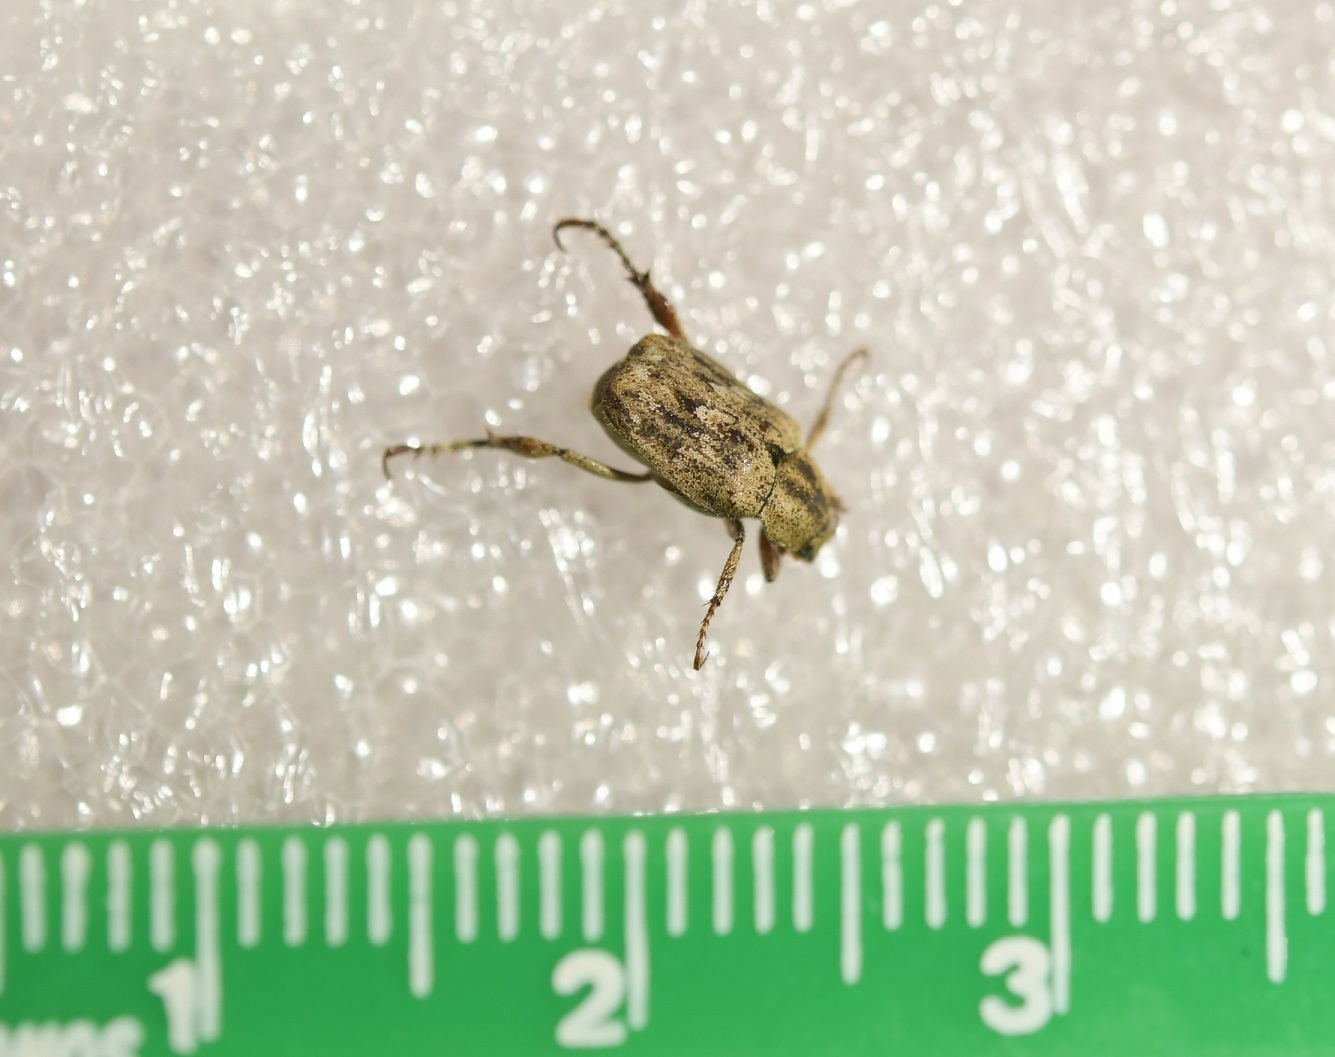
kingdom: Animalia
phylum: Arthropoda
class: Insecta
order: Coleoptera
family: Scarabaeidae
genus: Hoplia
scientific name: Hoplia squamifera
